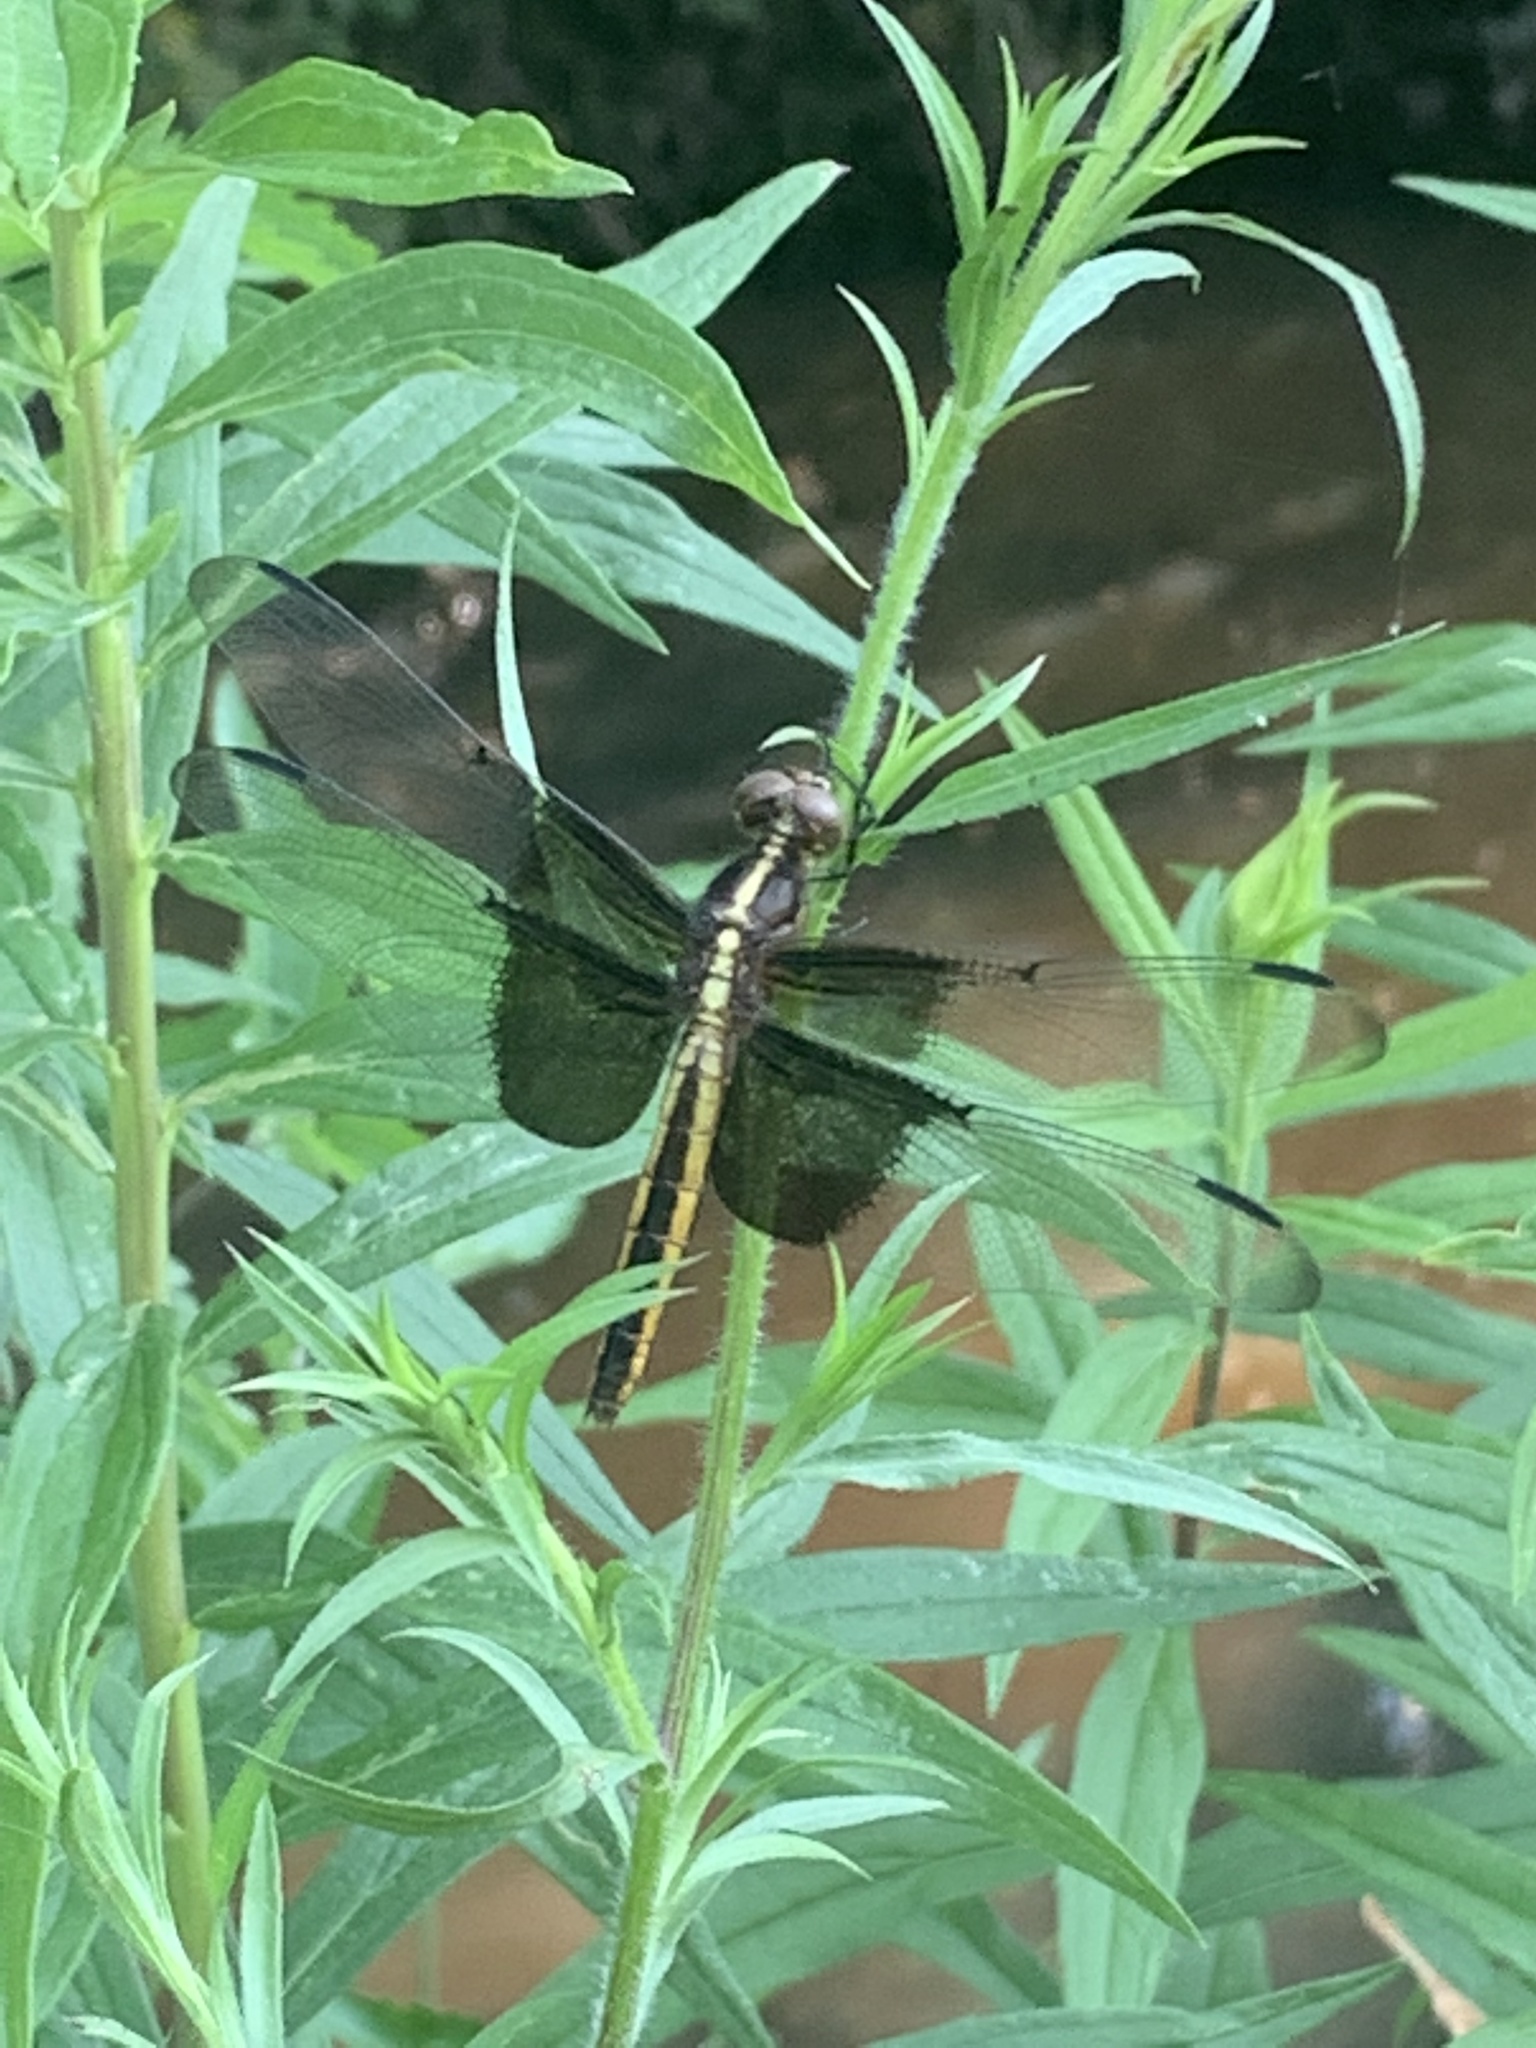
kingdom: Animalia
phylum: Arthropoda
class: Insecta
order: Odonata
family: Libellulidae
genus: Libellula
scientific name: Libellula luctuosa
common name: Widow skimmer
